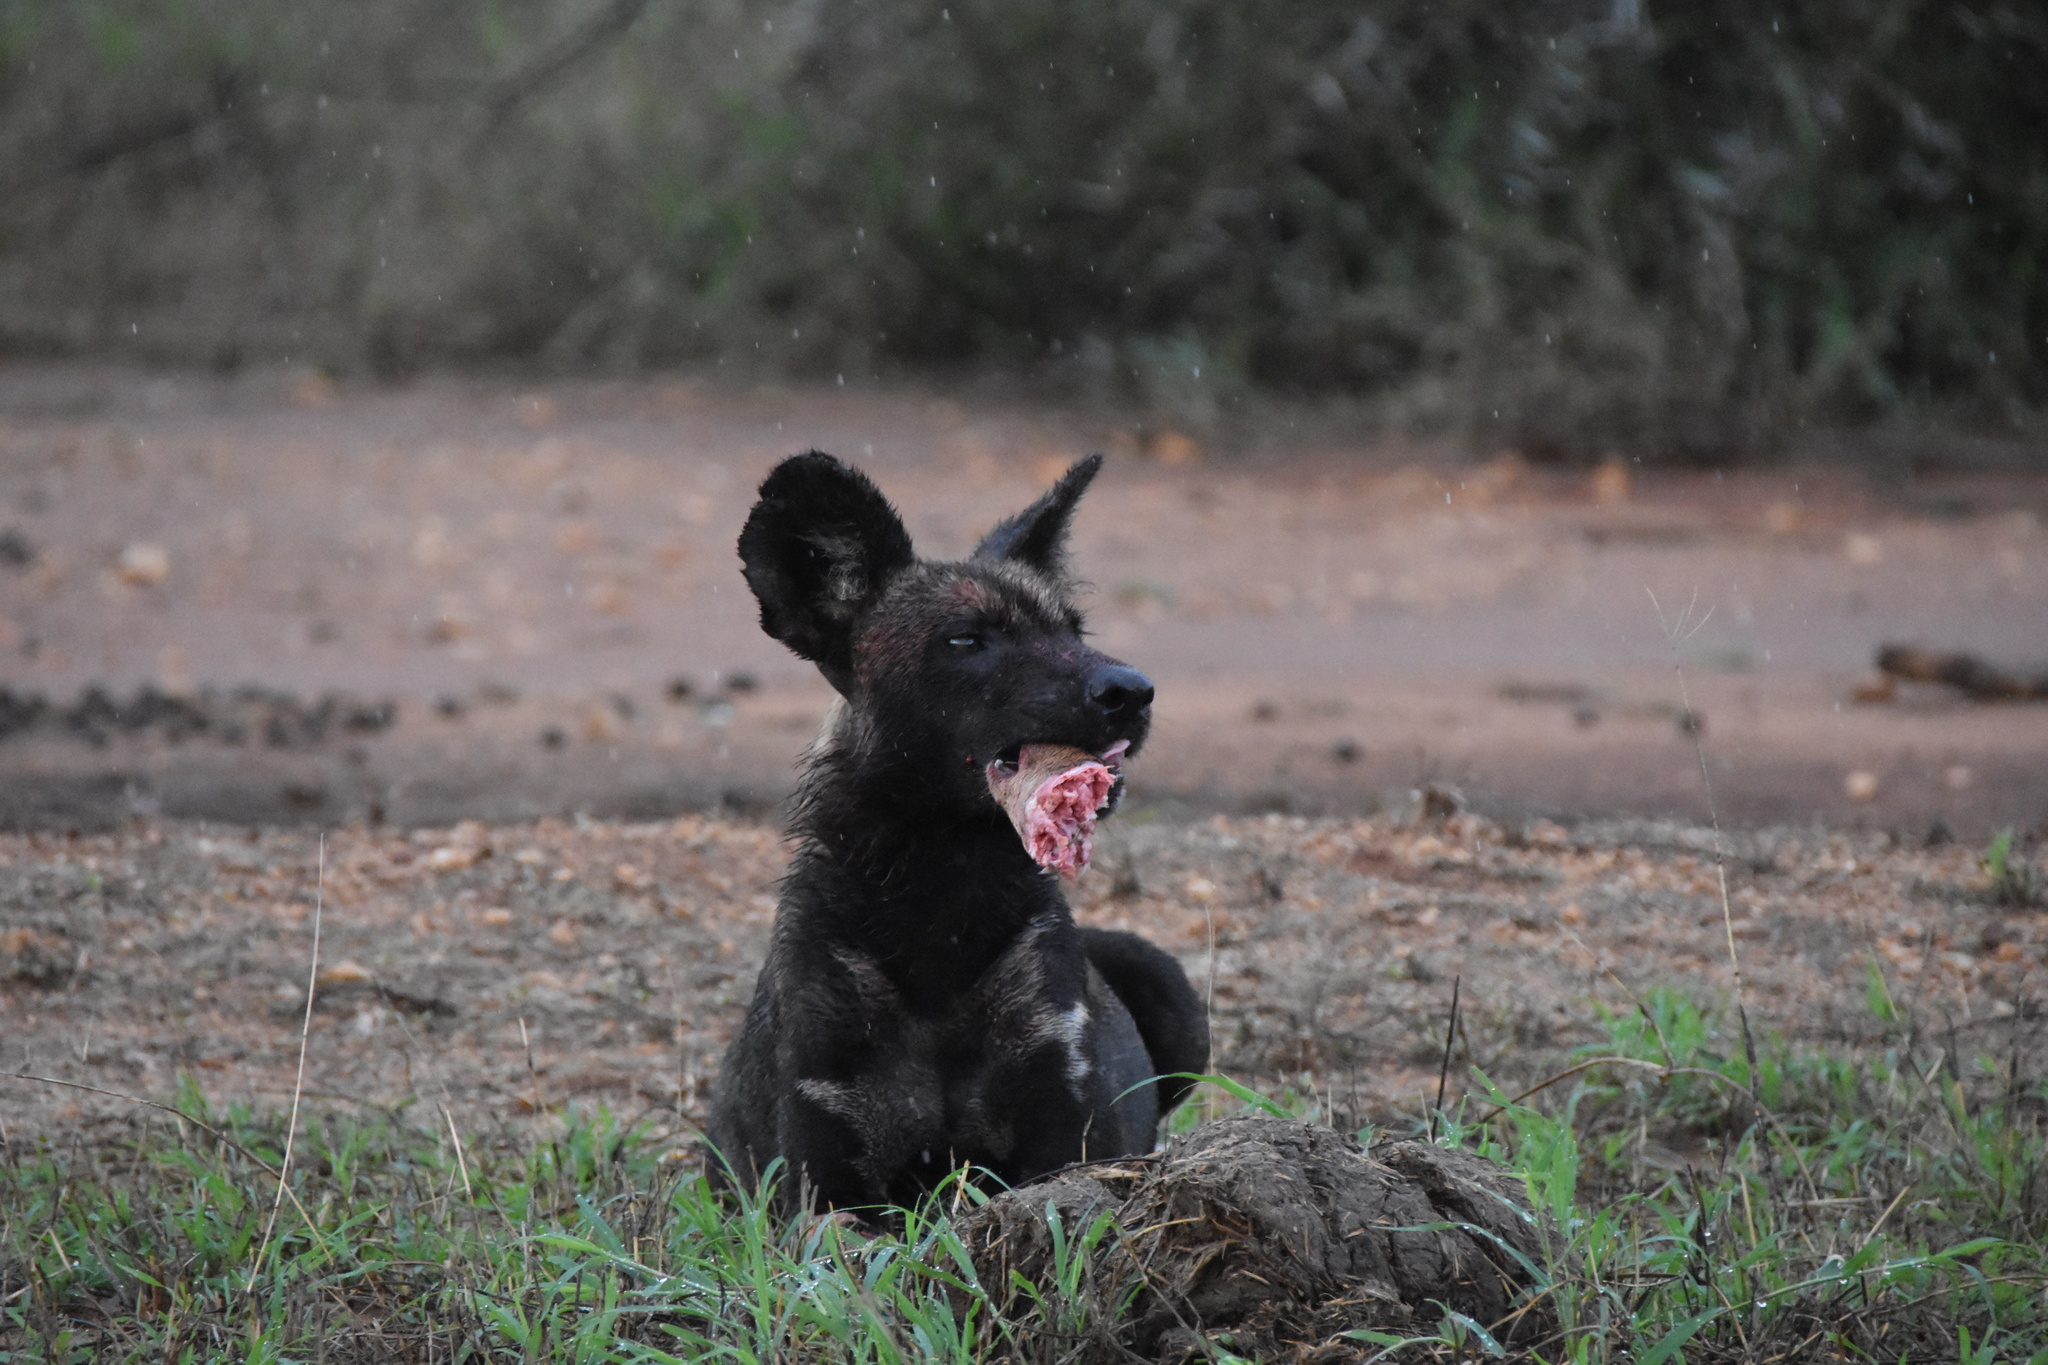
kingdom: Animalia
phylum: Chordata
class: Mammalia
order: Carnivora
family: Canidae
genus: Lycaon
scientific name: Lycaon pictus
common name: African wild dog
